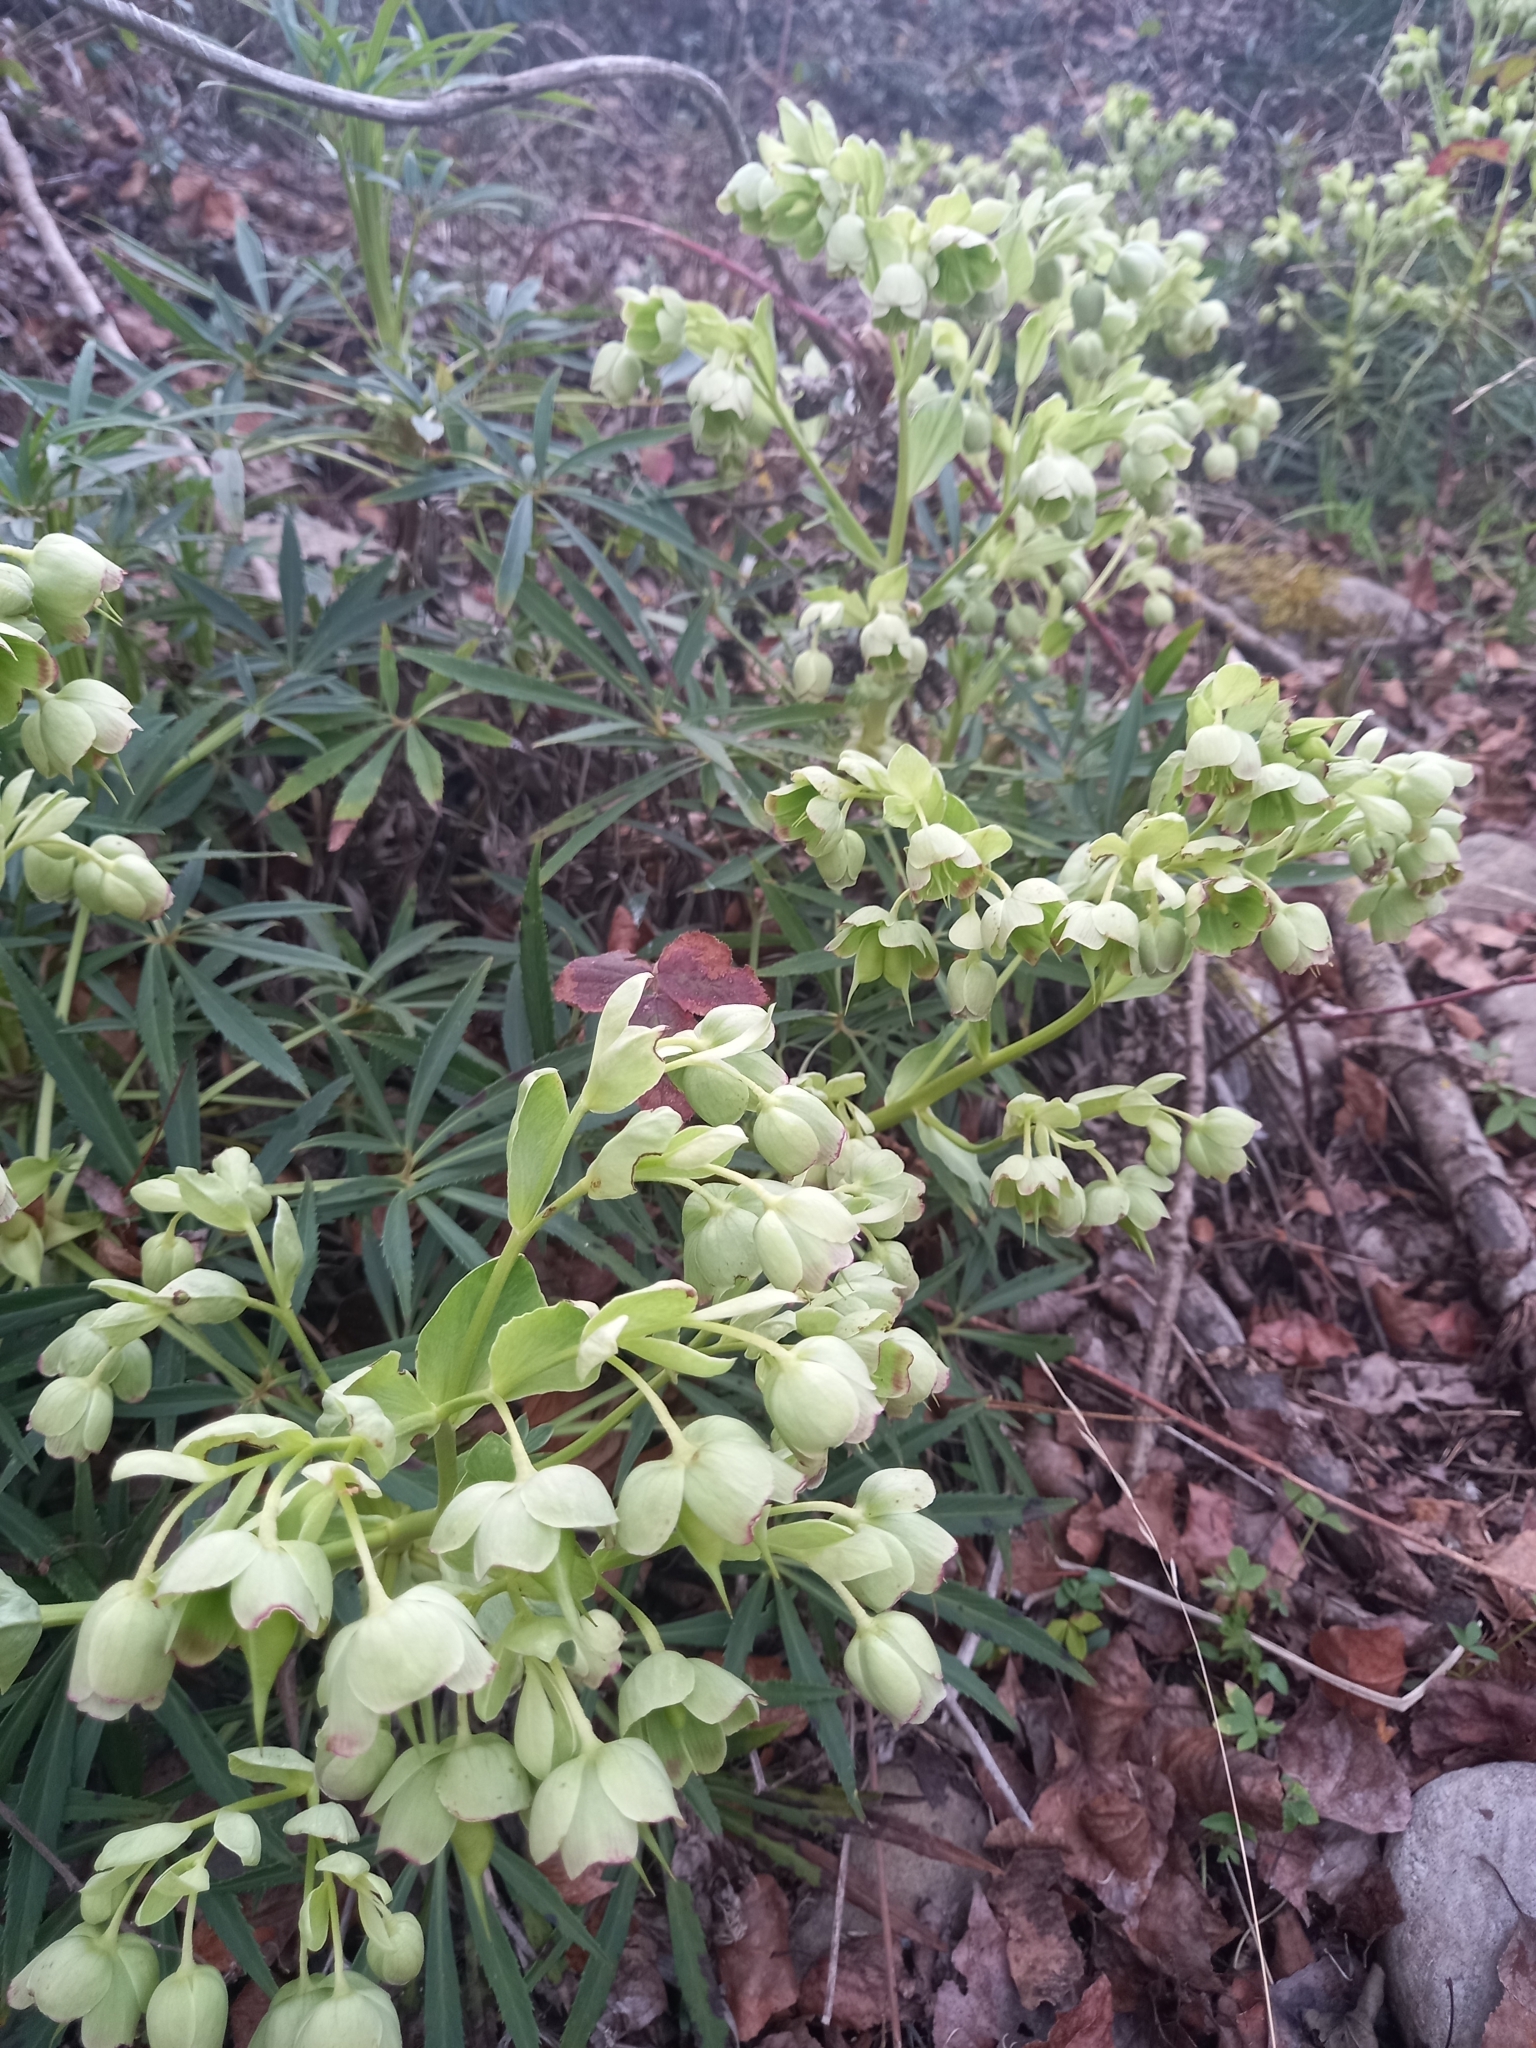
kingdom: Plantae
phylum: Tracheophyta
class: Magnoliopsida
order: Ranunculales
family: Ranunculaceae
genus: Helleborus
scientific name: Helleborus foetidus
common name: Stinking hellebore
